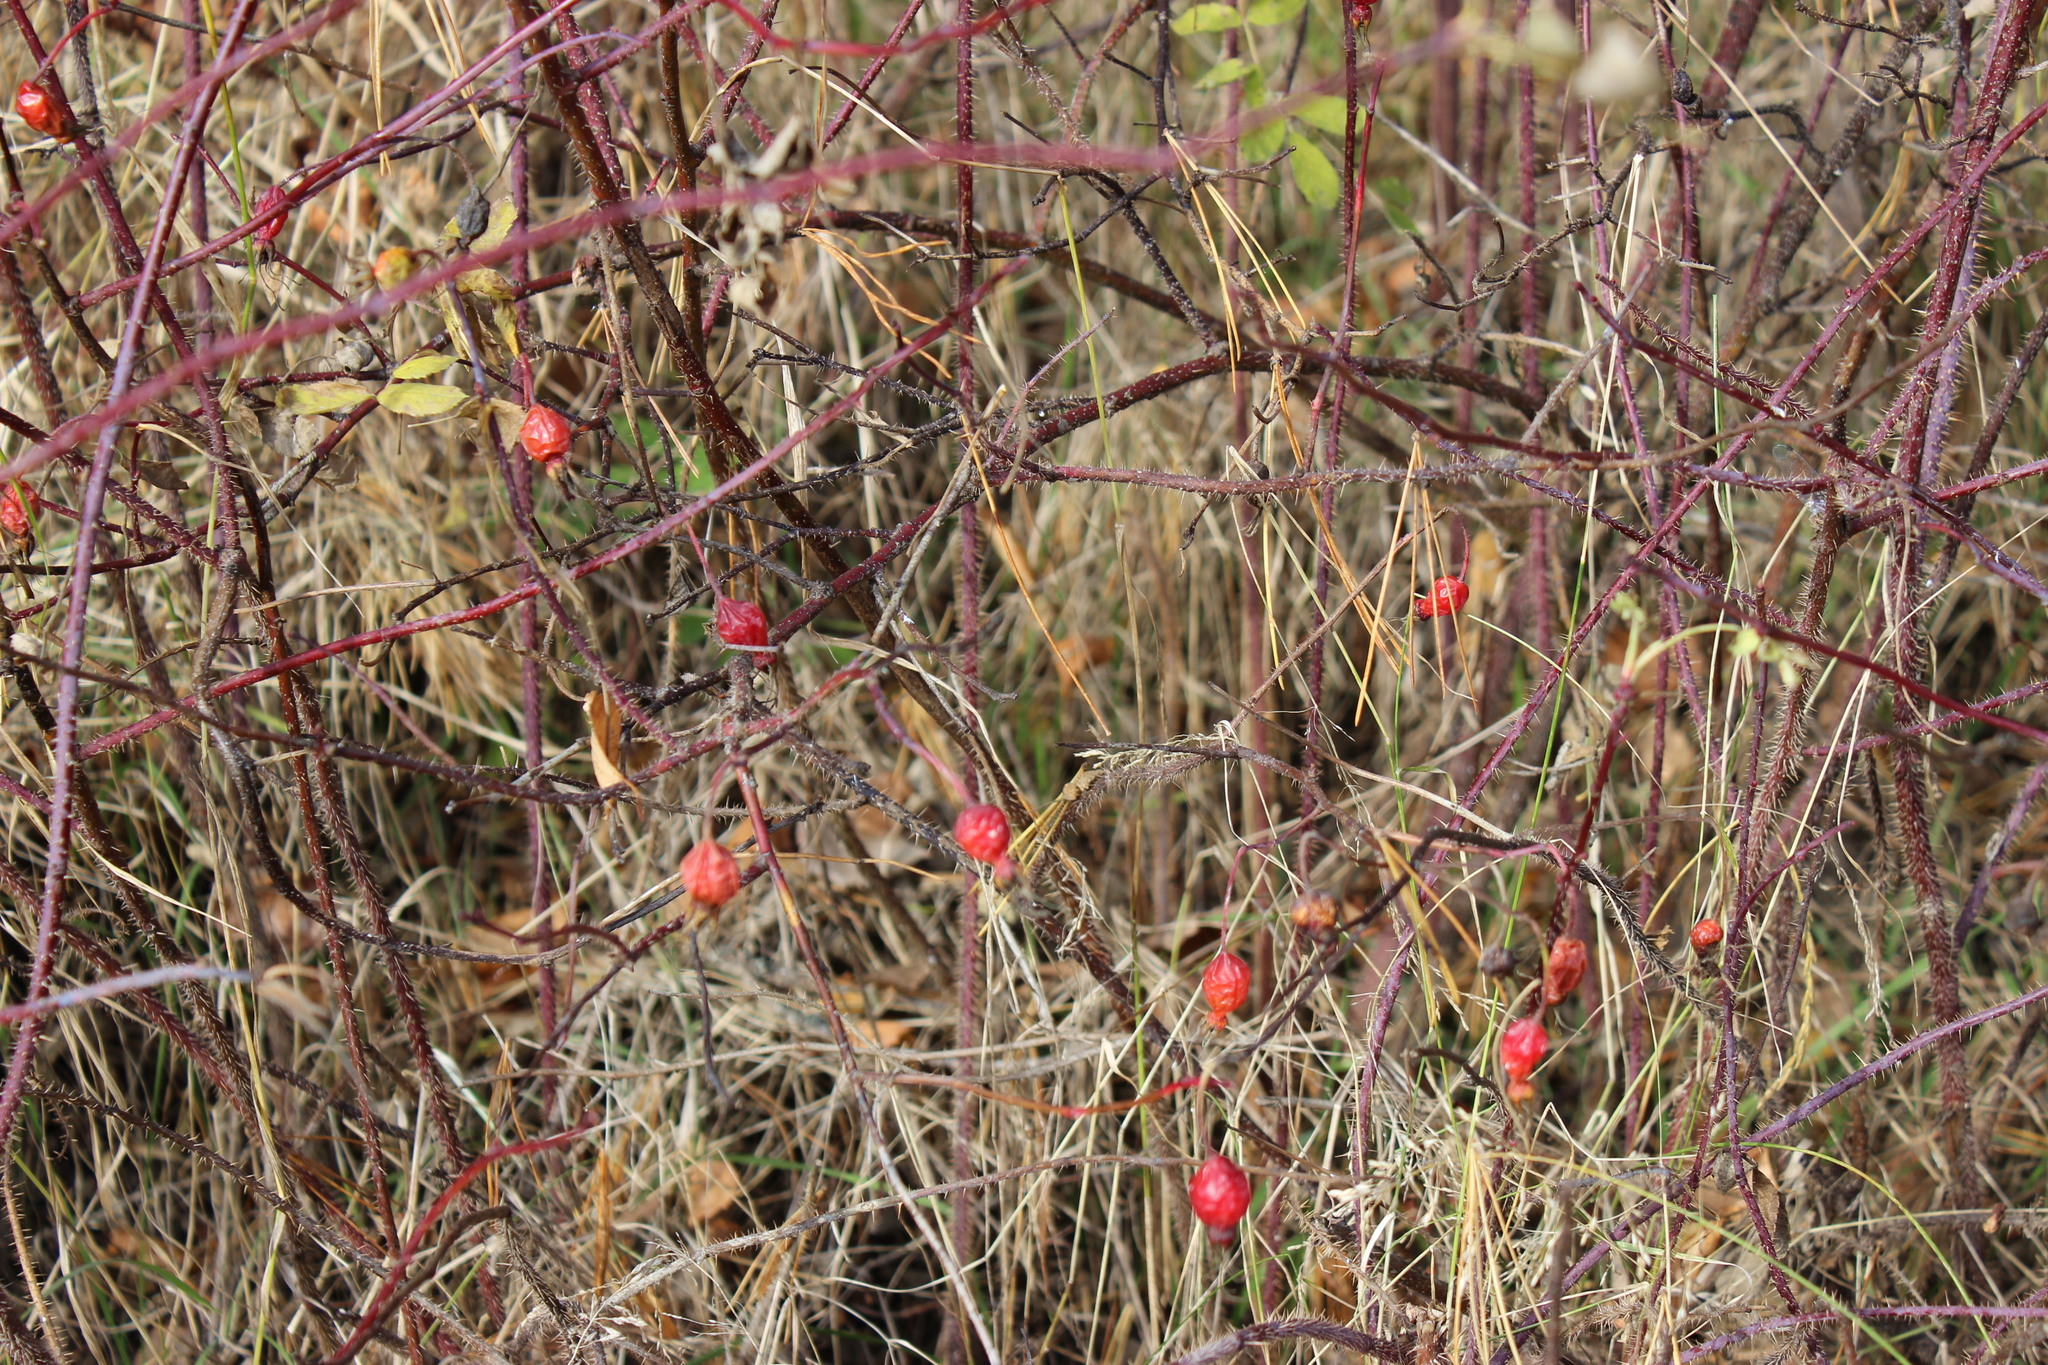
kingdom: Plantae
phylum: Tracheophyta
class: Magnoliopsida
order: Rosales
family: Rosaceae
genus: Rosa
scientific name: Rosa acicularis
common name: Prickly rose
